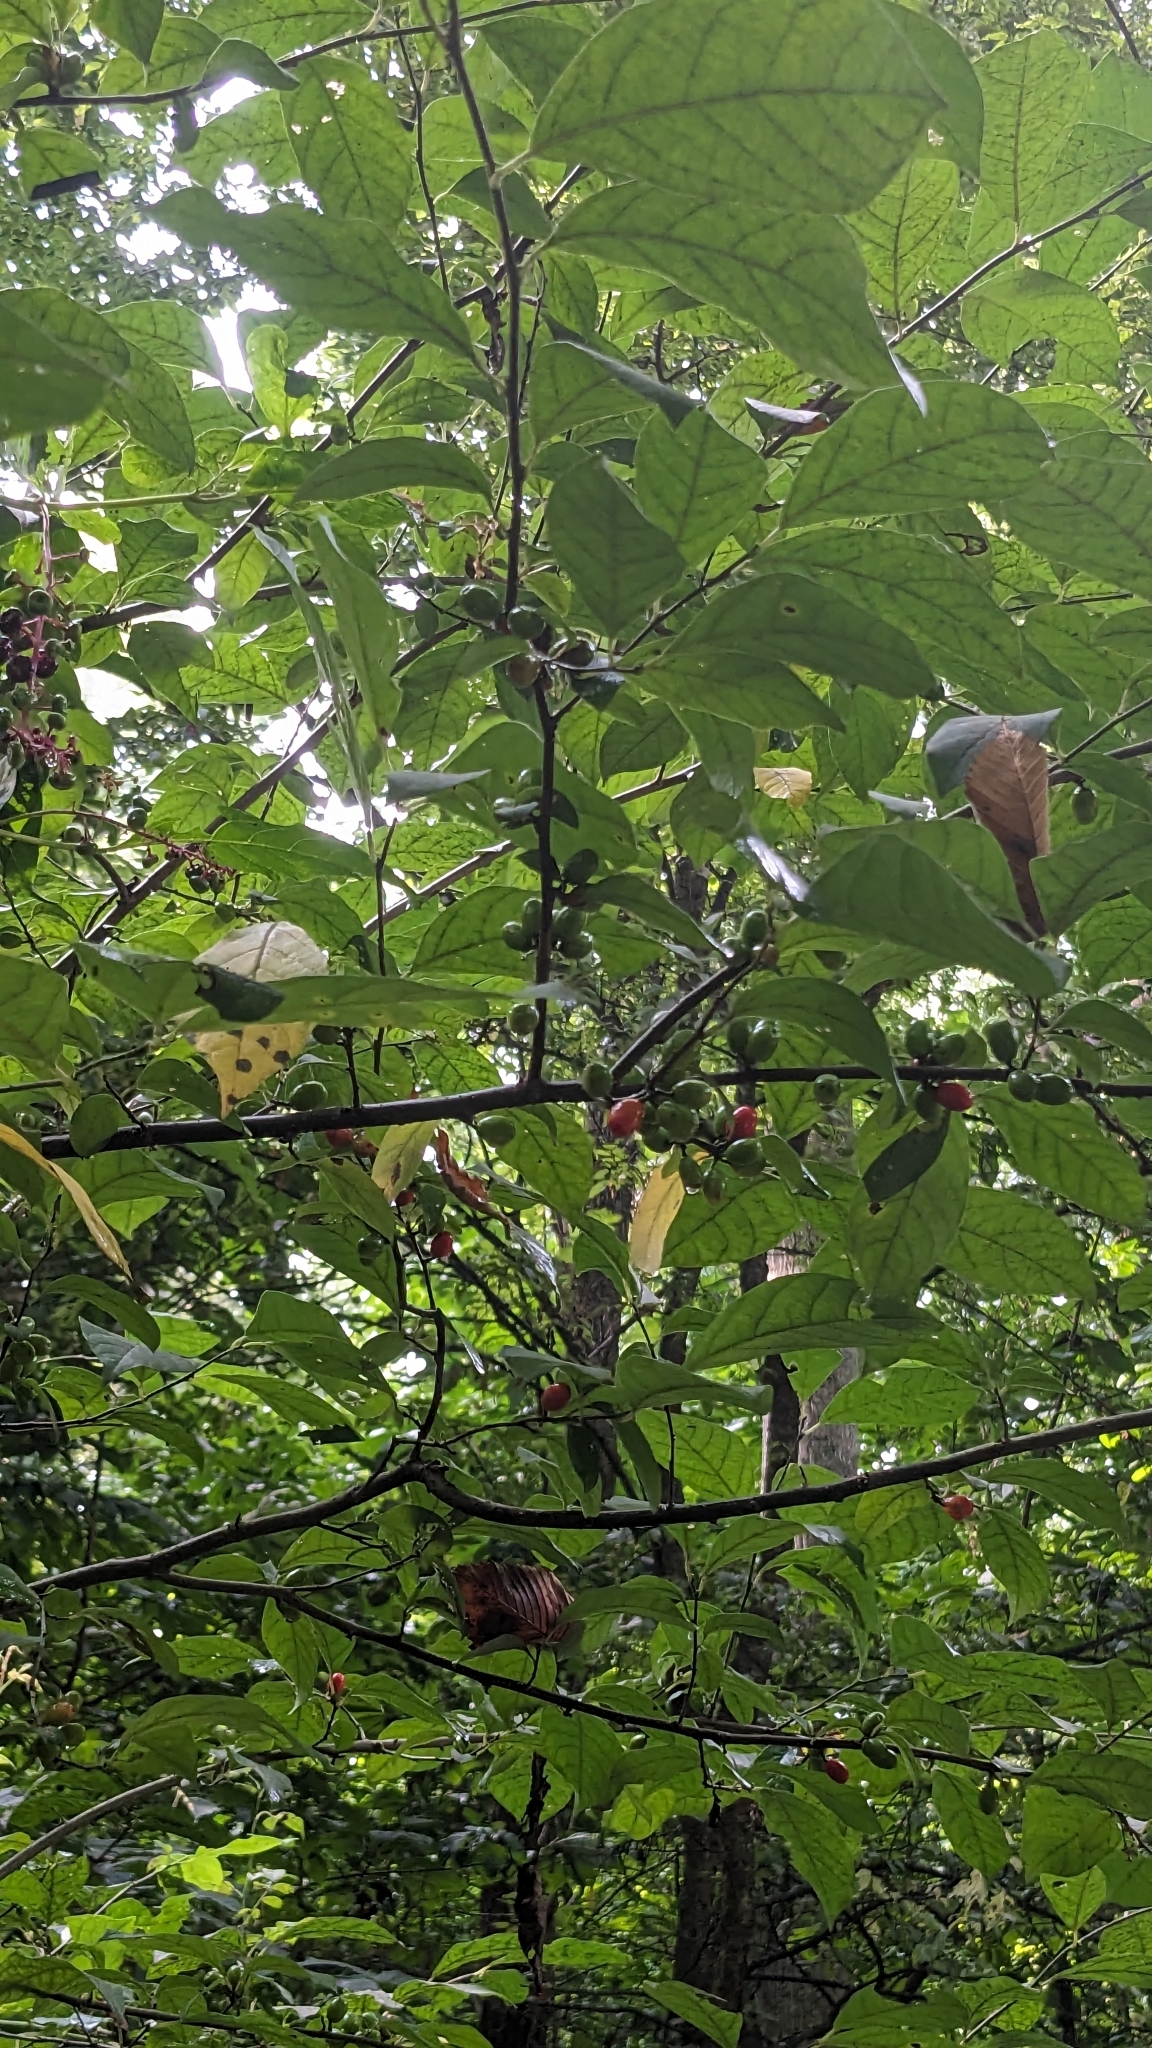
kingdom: Plantae
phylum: Tracheophyta
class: Magnoliopsida
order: Laurales
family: Lauraceae
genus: Lindera
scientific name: Lindera benzoin
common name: Spicebush
